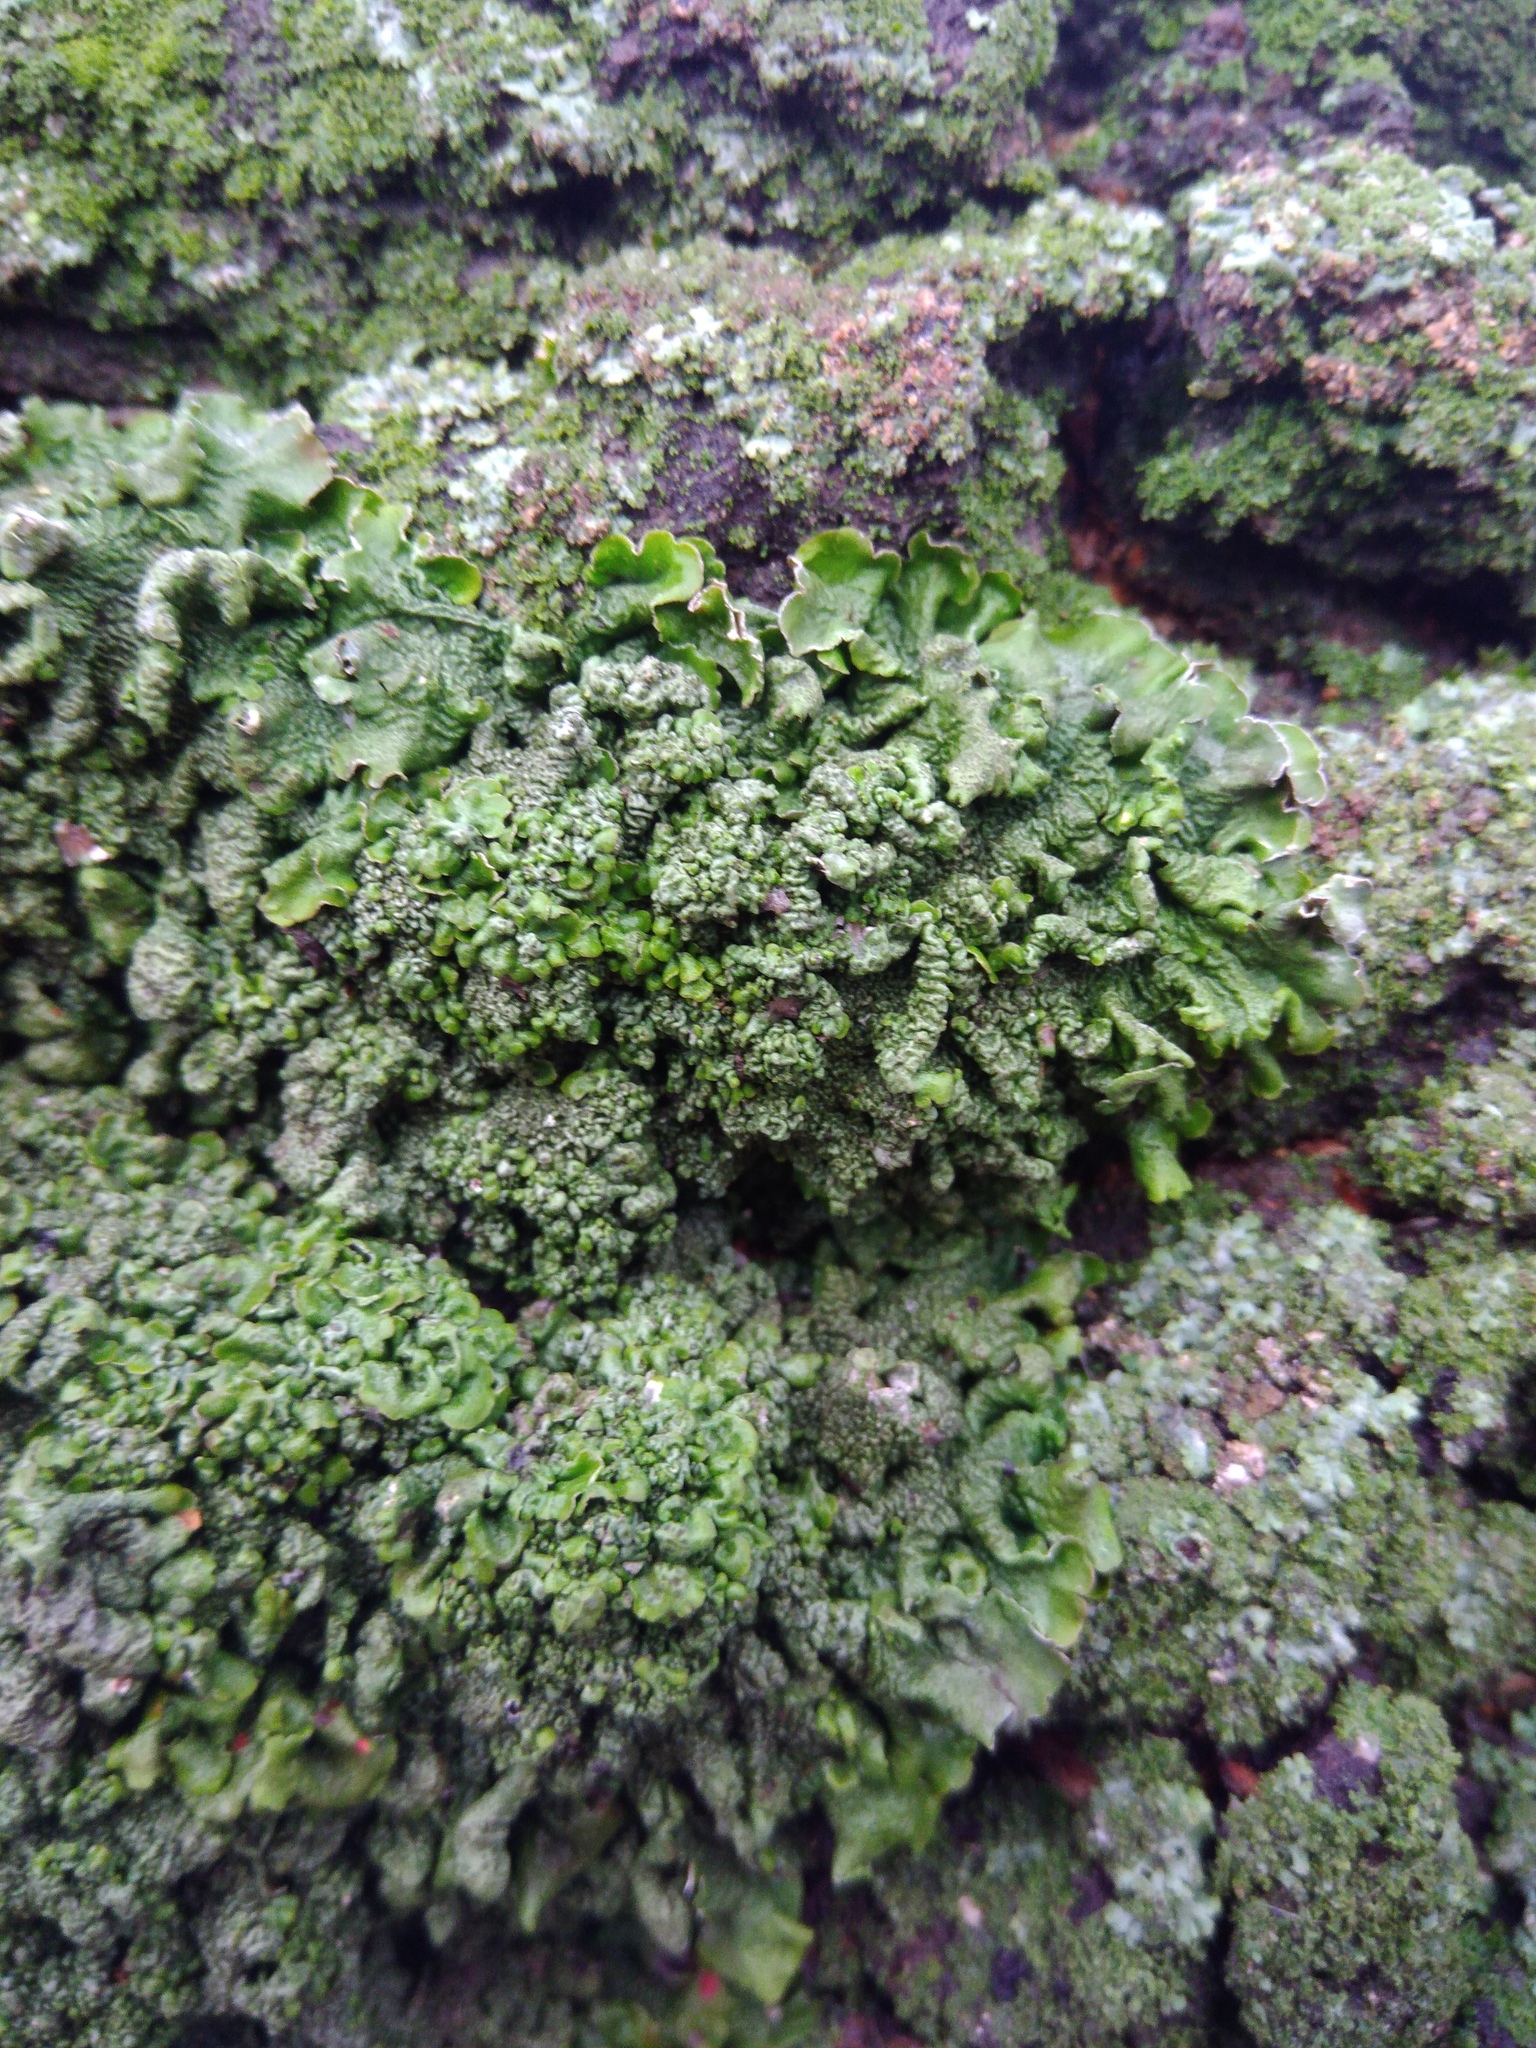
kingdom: Fungi
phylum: Ascomycota
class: Lecanoromycetes
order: Lecanorales
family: Parmeliaceae
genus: Pleurosticta
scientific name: Pleurosticta acetabulum
